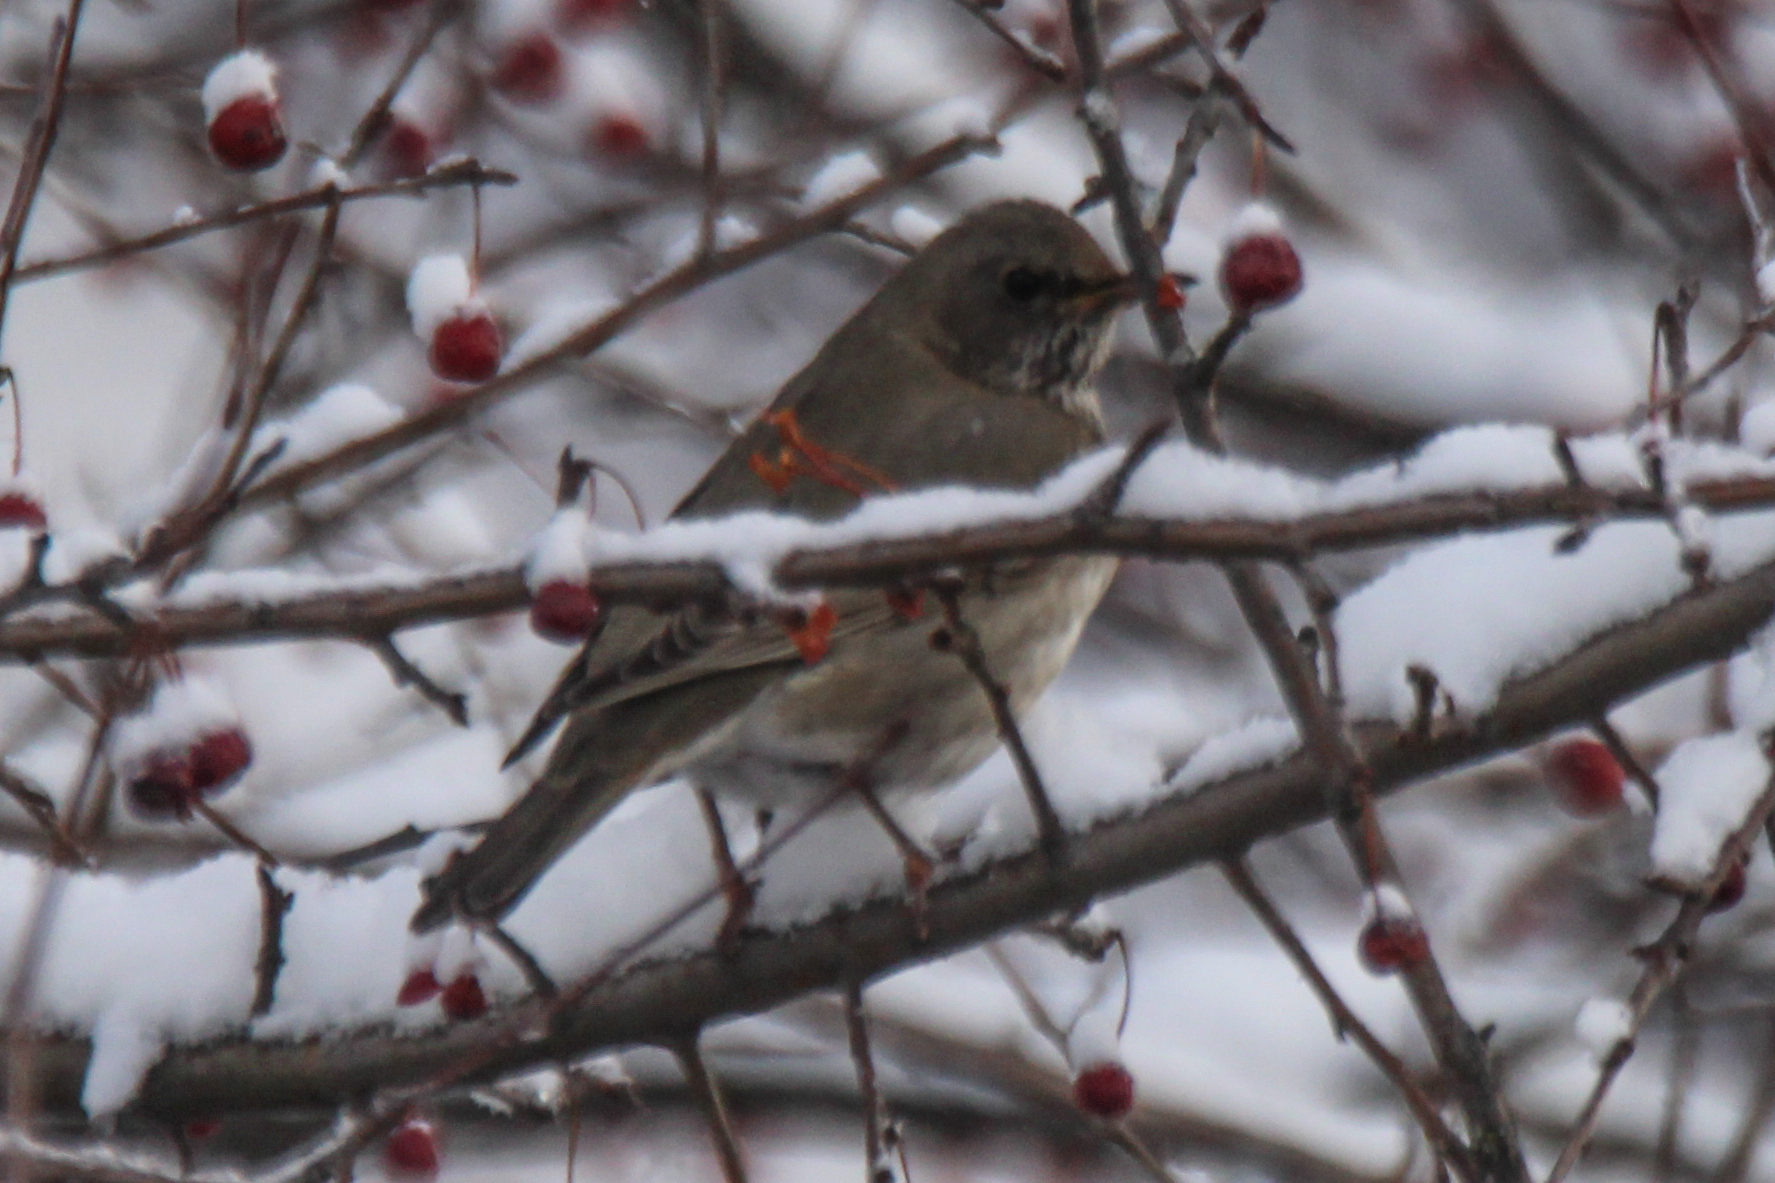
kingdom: Animalia
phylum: Chordata
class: Aves
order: Passeriformes
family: Turdidae
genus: Turdus
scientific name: Turdus atrogularis
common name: Black-throated thrush
